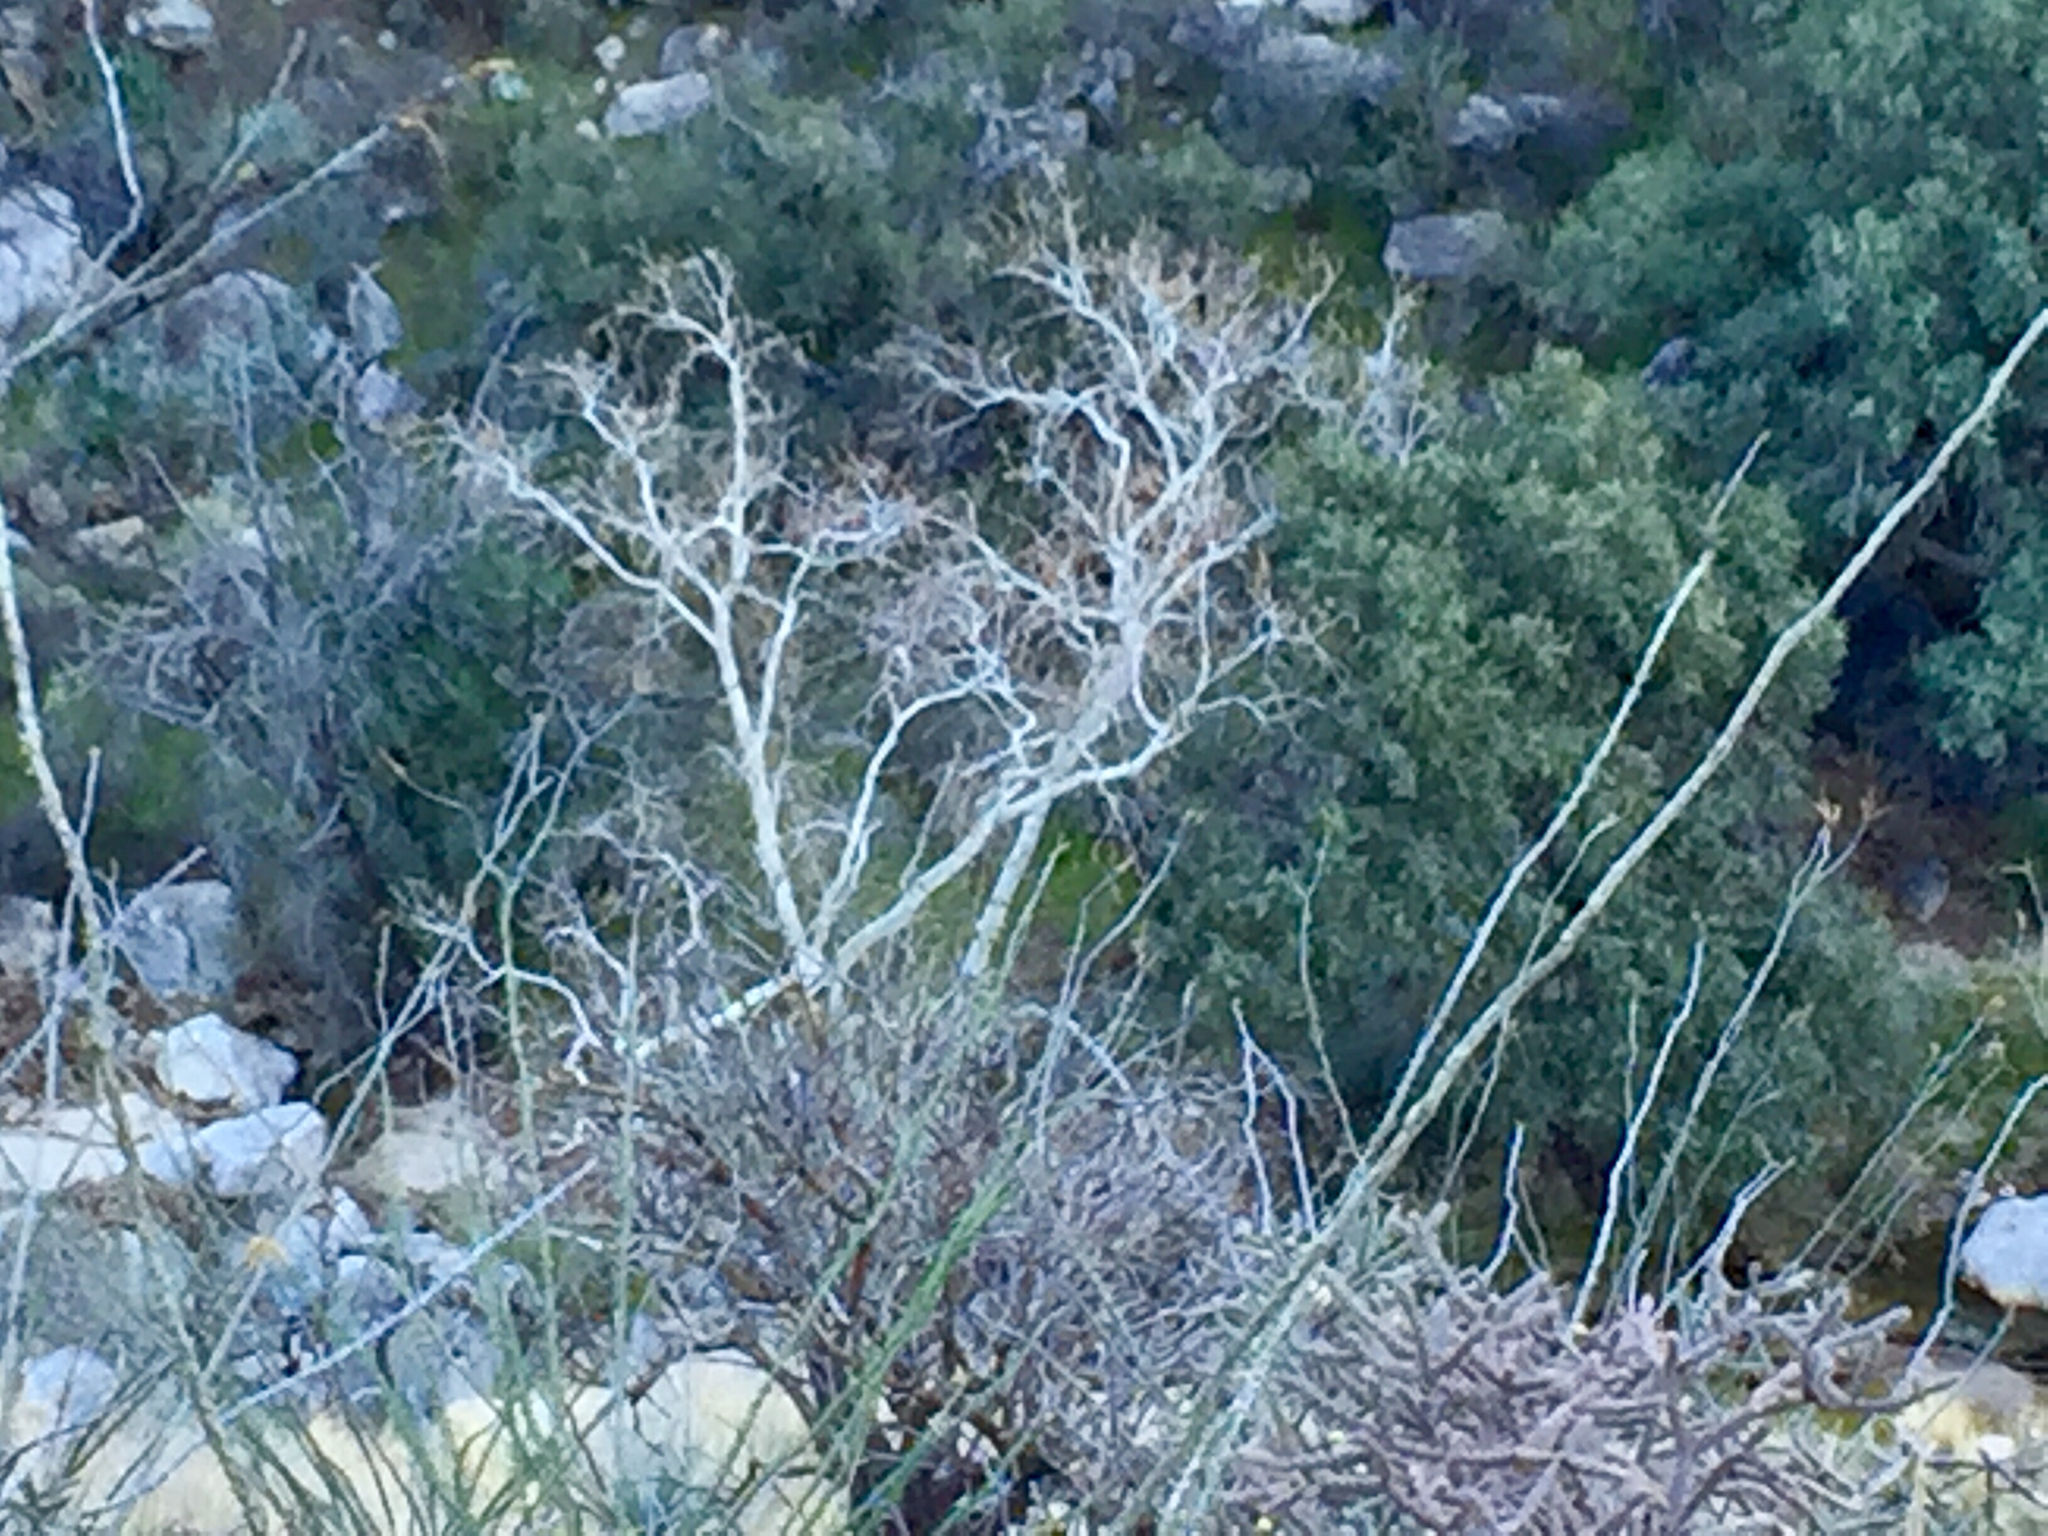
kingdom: Plantae
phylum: Tracheophyta
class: Magnoliopsida
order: Proteales
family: Platanaceae
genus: Platanus
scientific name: Platanus wrightii
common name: Arizona sycamore
